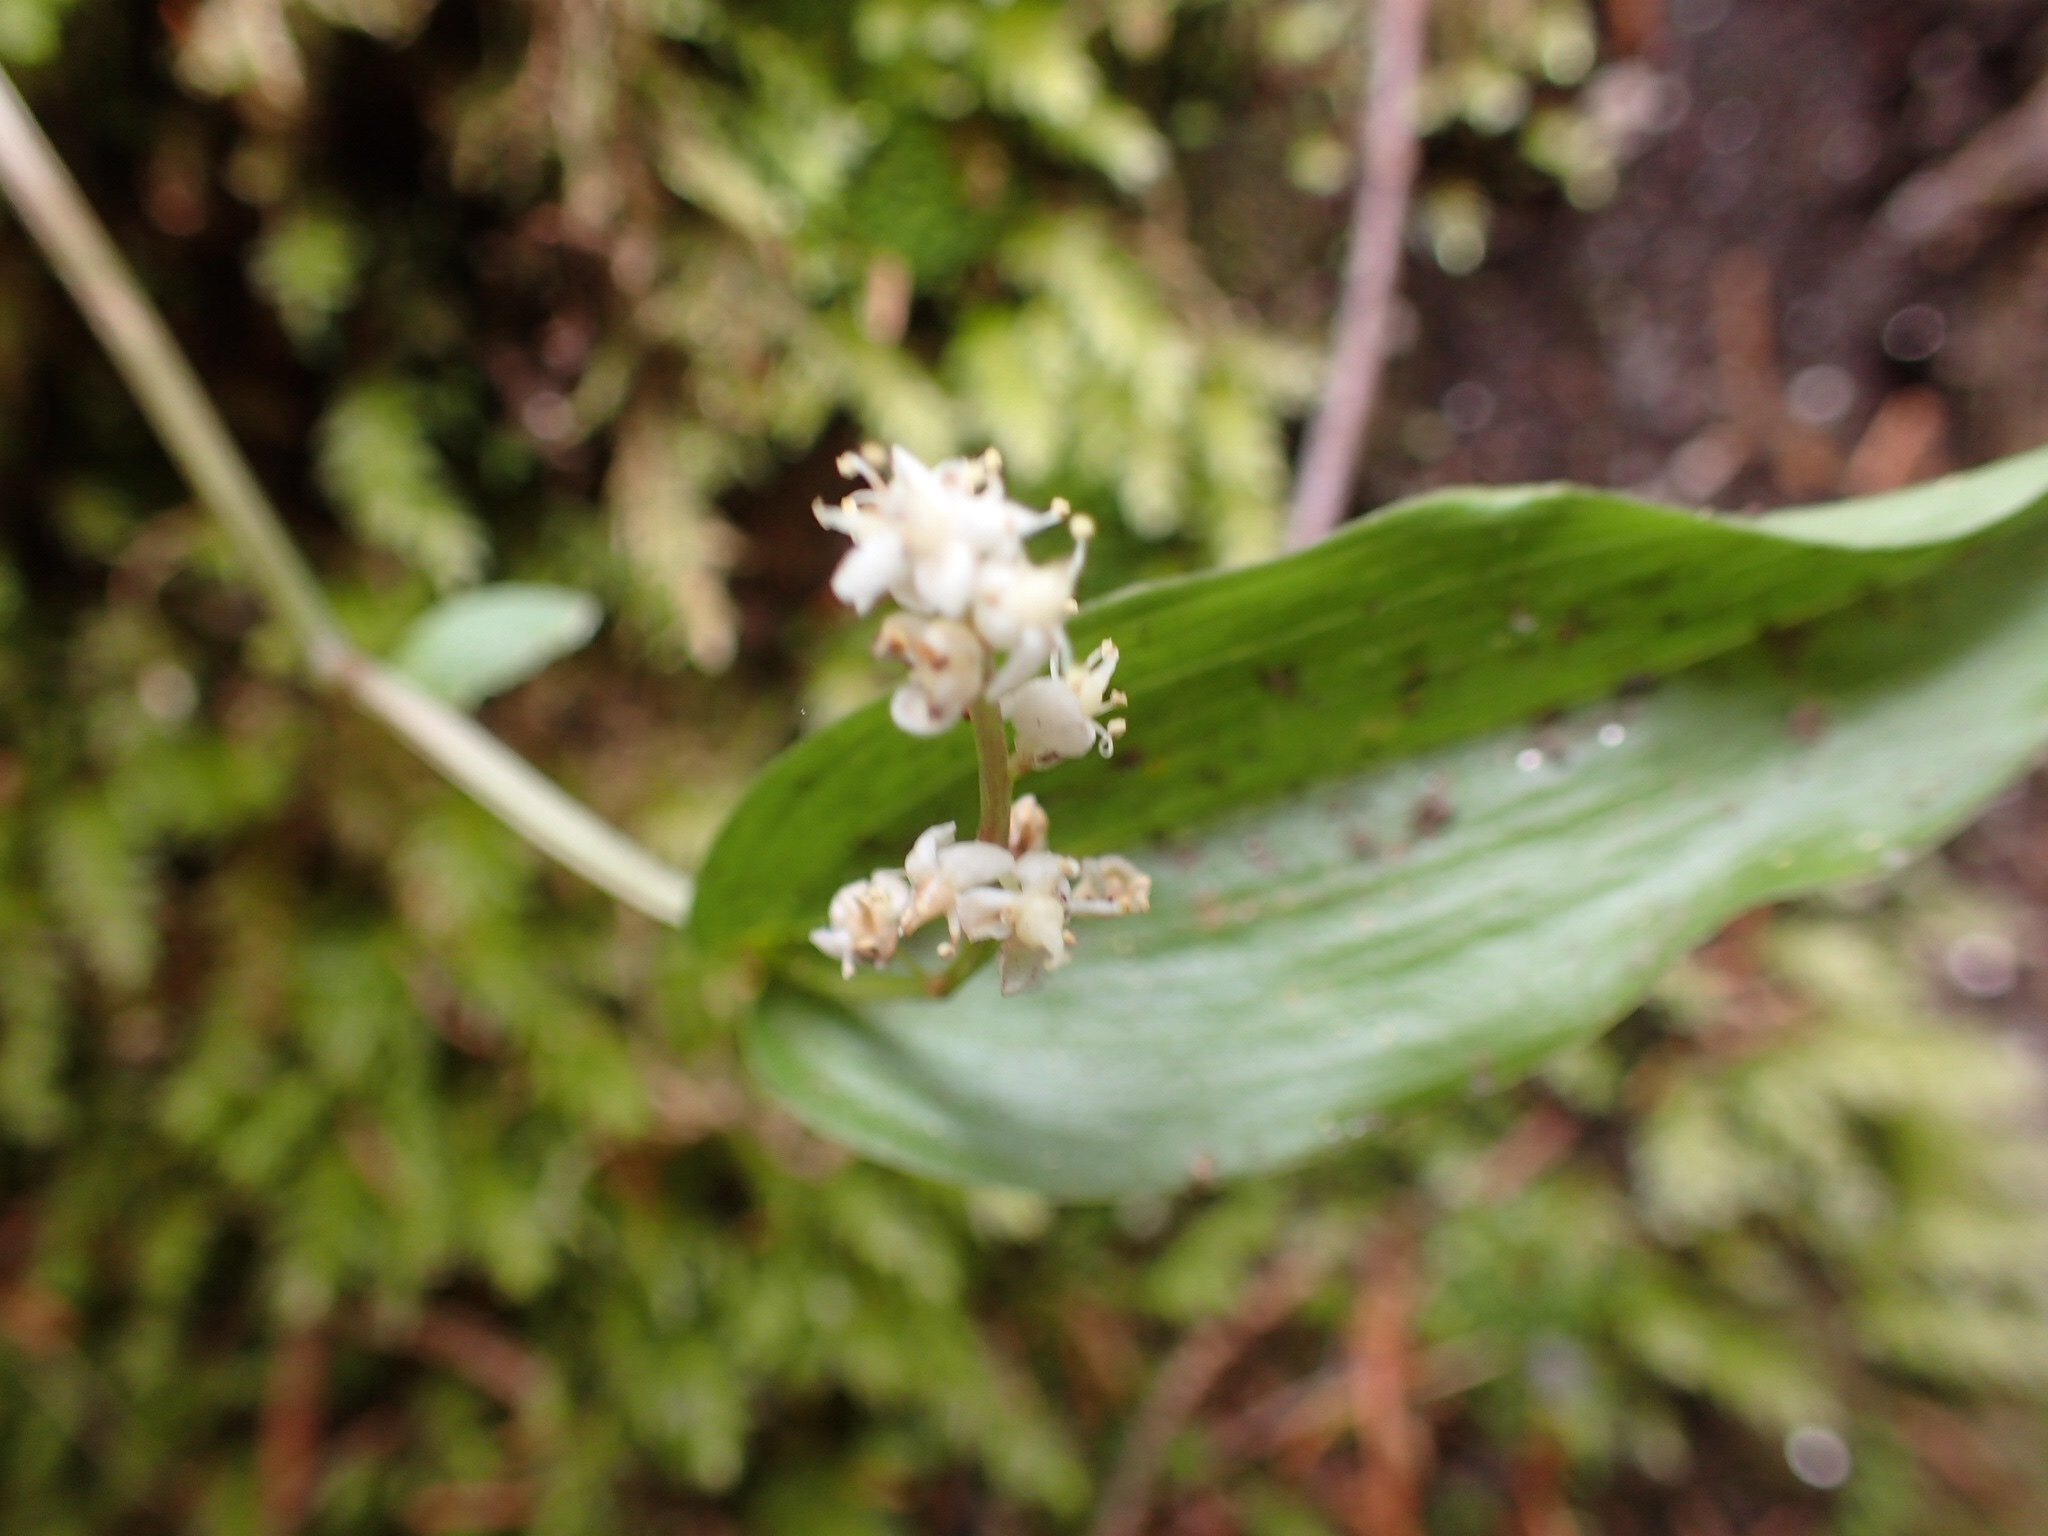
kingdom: Plantae
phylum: Tracheophyta
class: Liliopsida
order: Asparagales
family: Asparagaceae
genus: Maianthemum
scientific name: Maianthemum canadense
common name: False lily-of-the-valley
